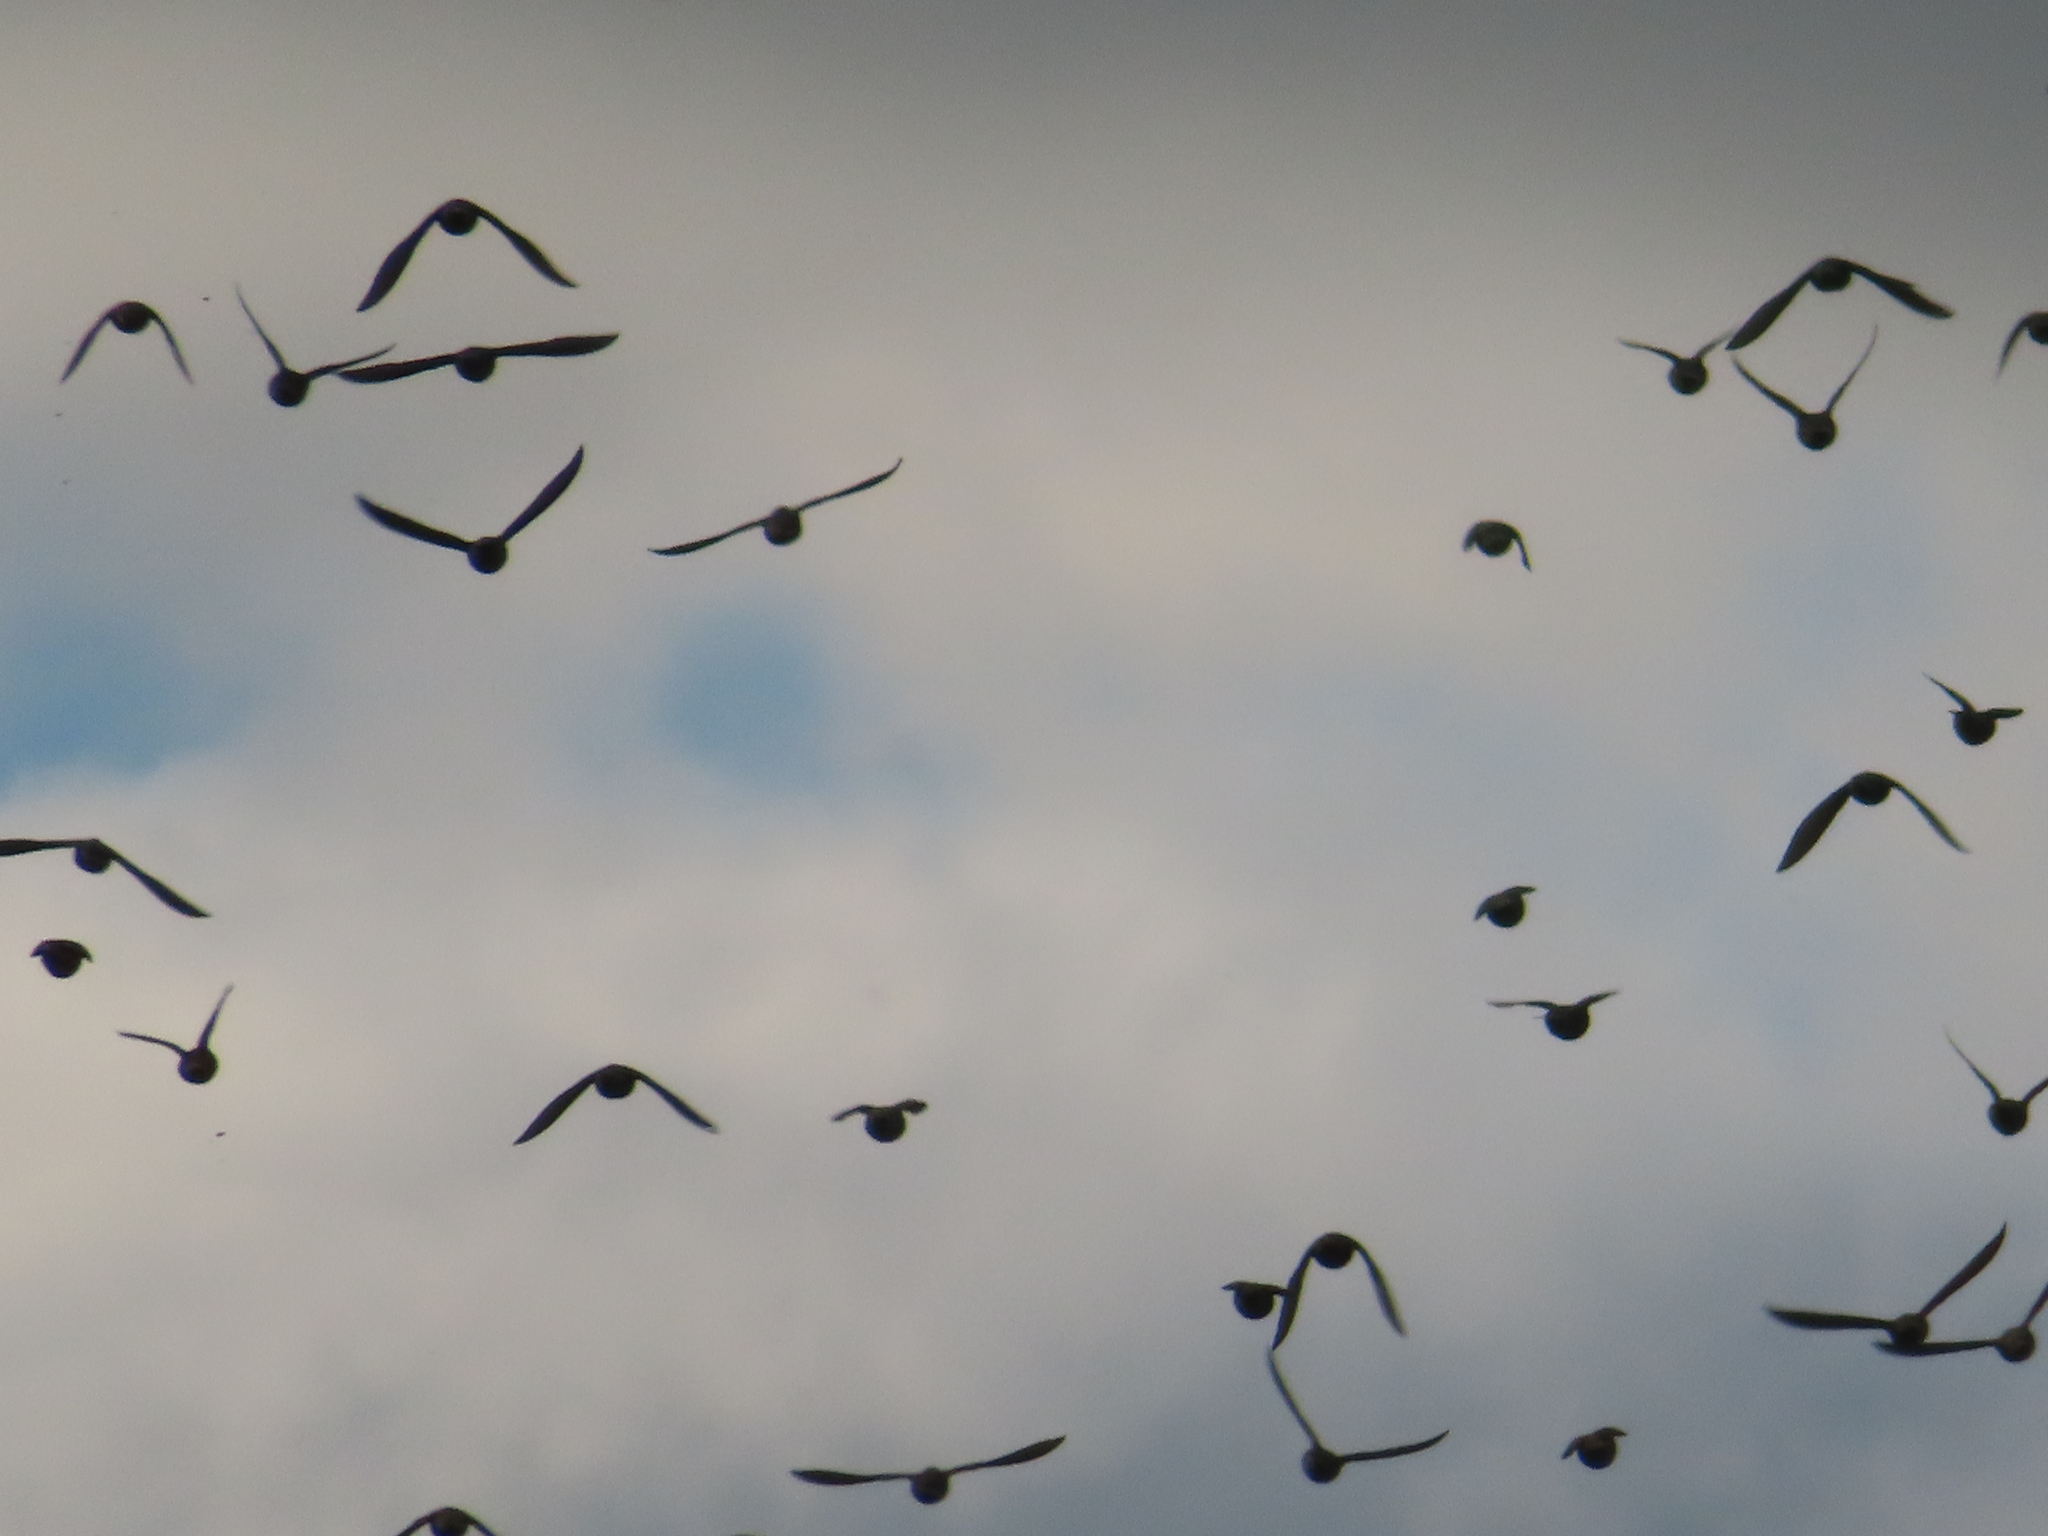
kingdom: Animalia
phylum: Chordata
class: Aves
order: Passeriformes
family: Sturnidae
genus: Sturnus
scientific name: Sturnus vulgaris
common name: Common starling
